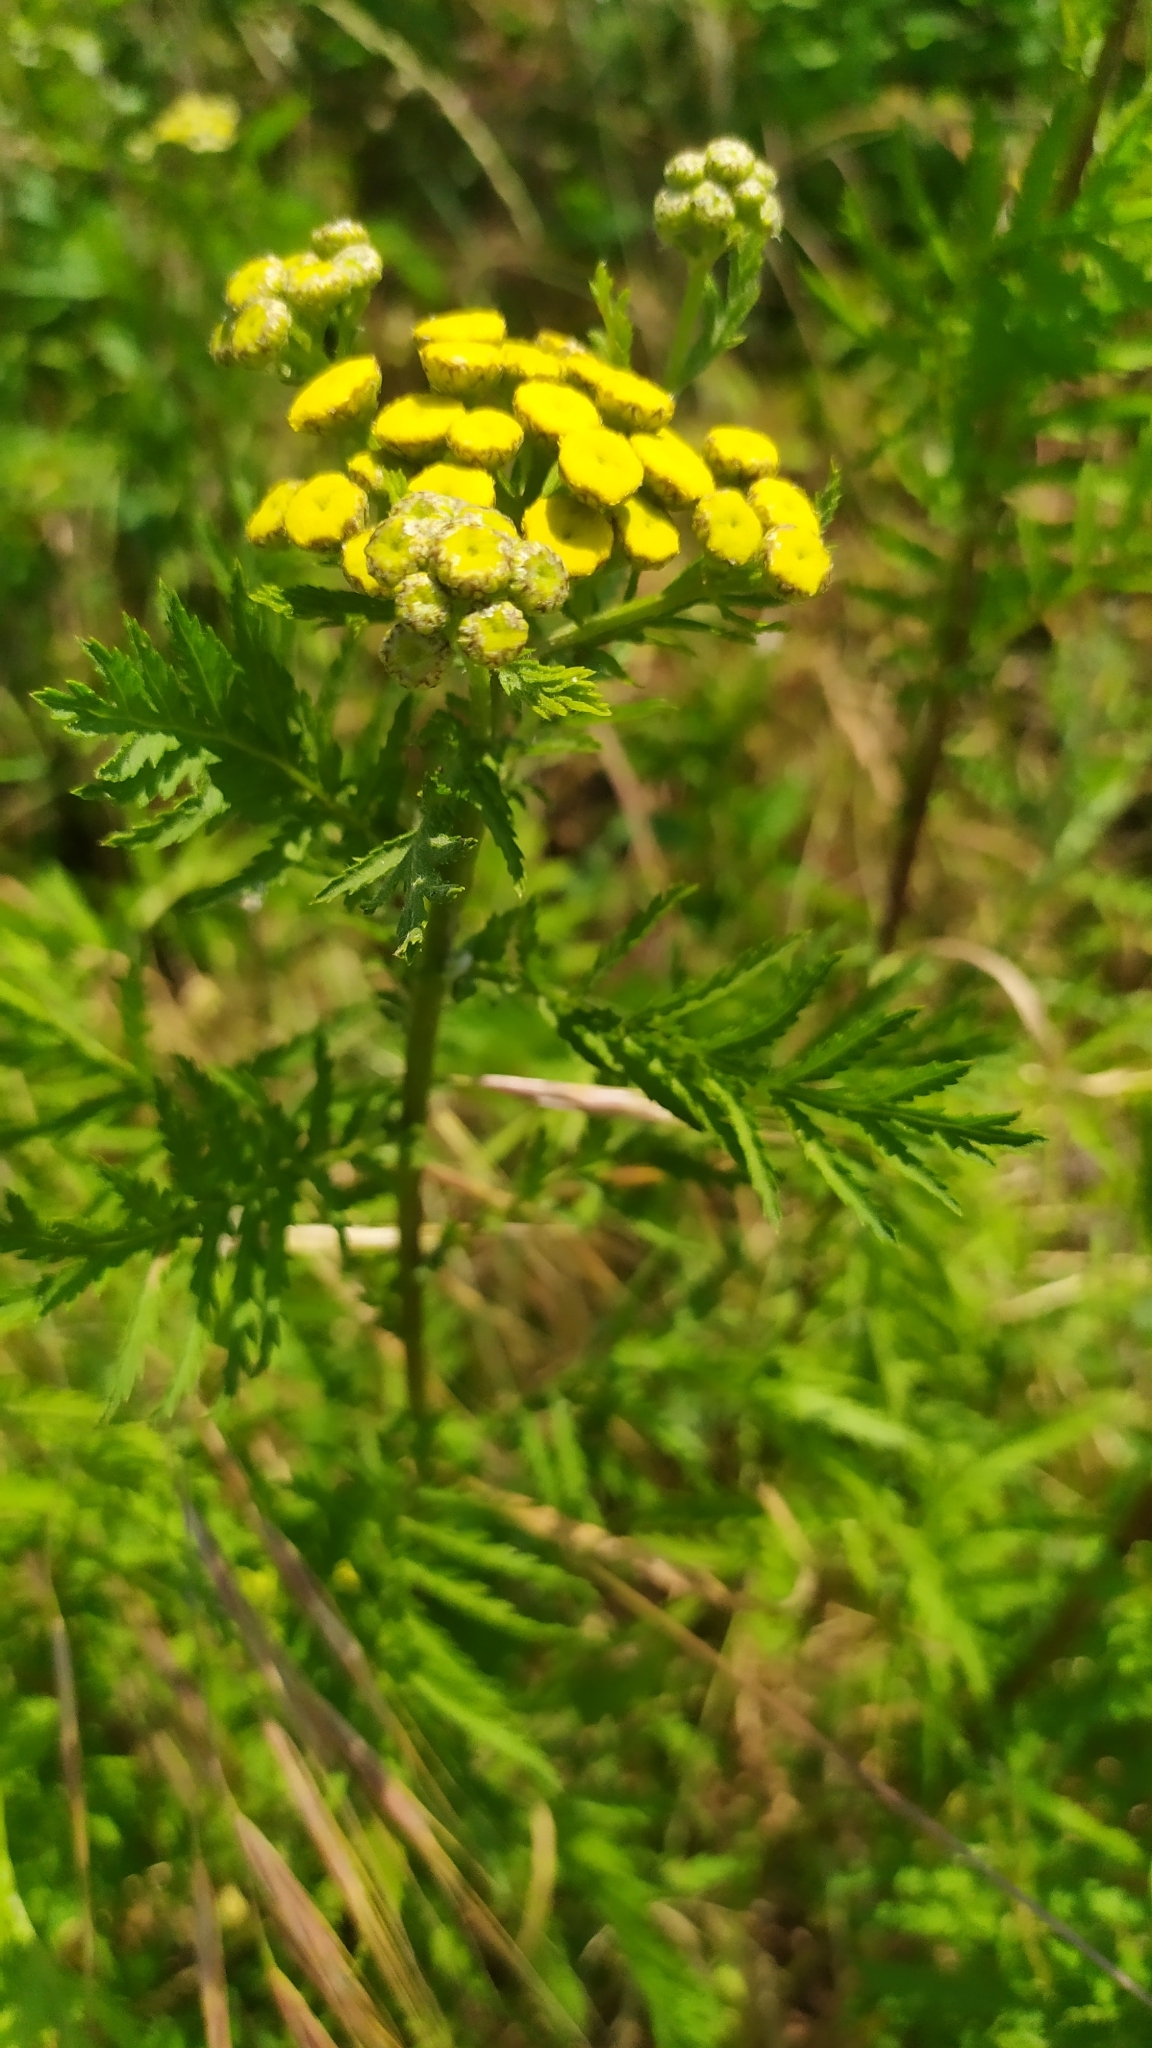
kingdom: Plantae
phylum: Tracheophyta
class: Magnoliopsida
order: Asterales
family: Asteraceae
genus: Tanacetum
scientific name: Tanacetum vulgare
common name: Common tansy
